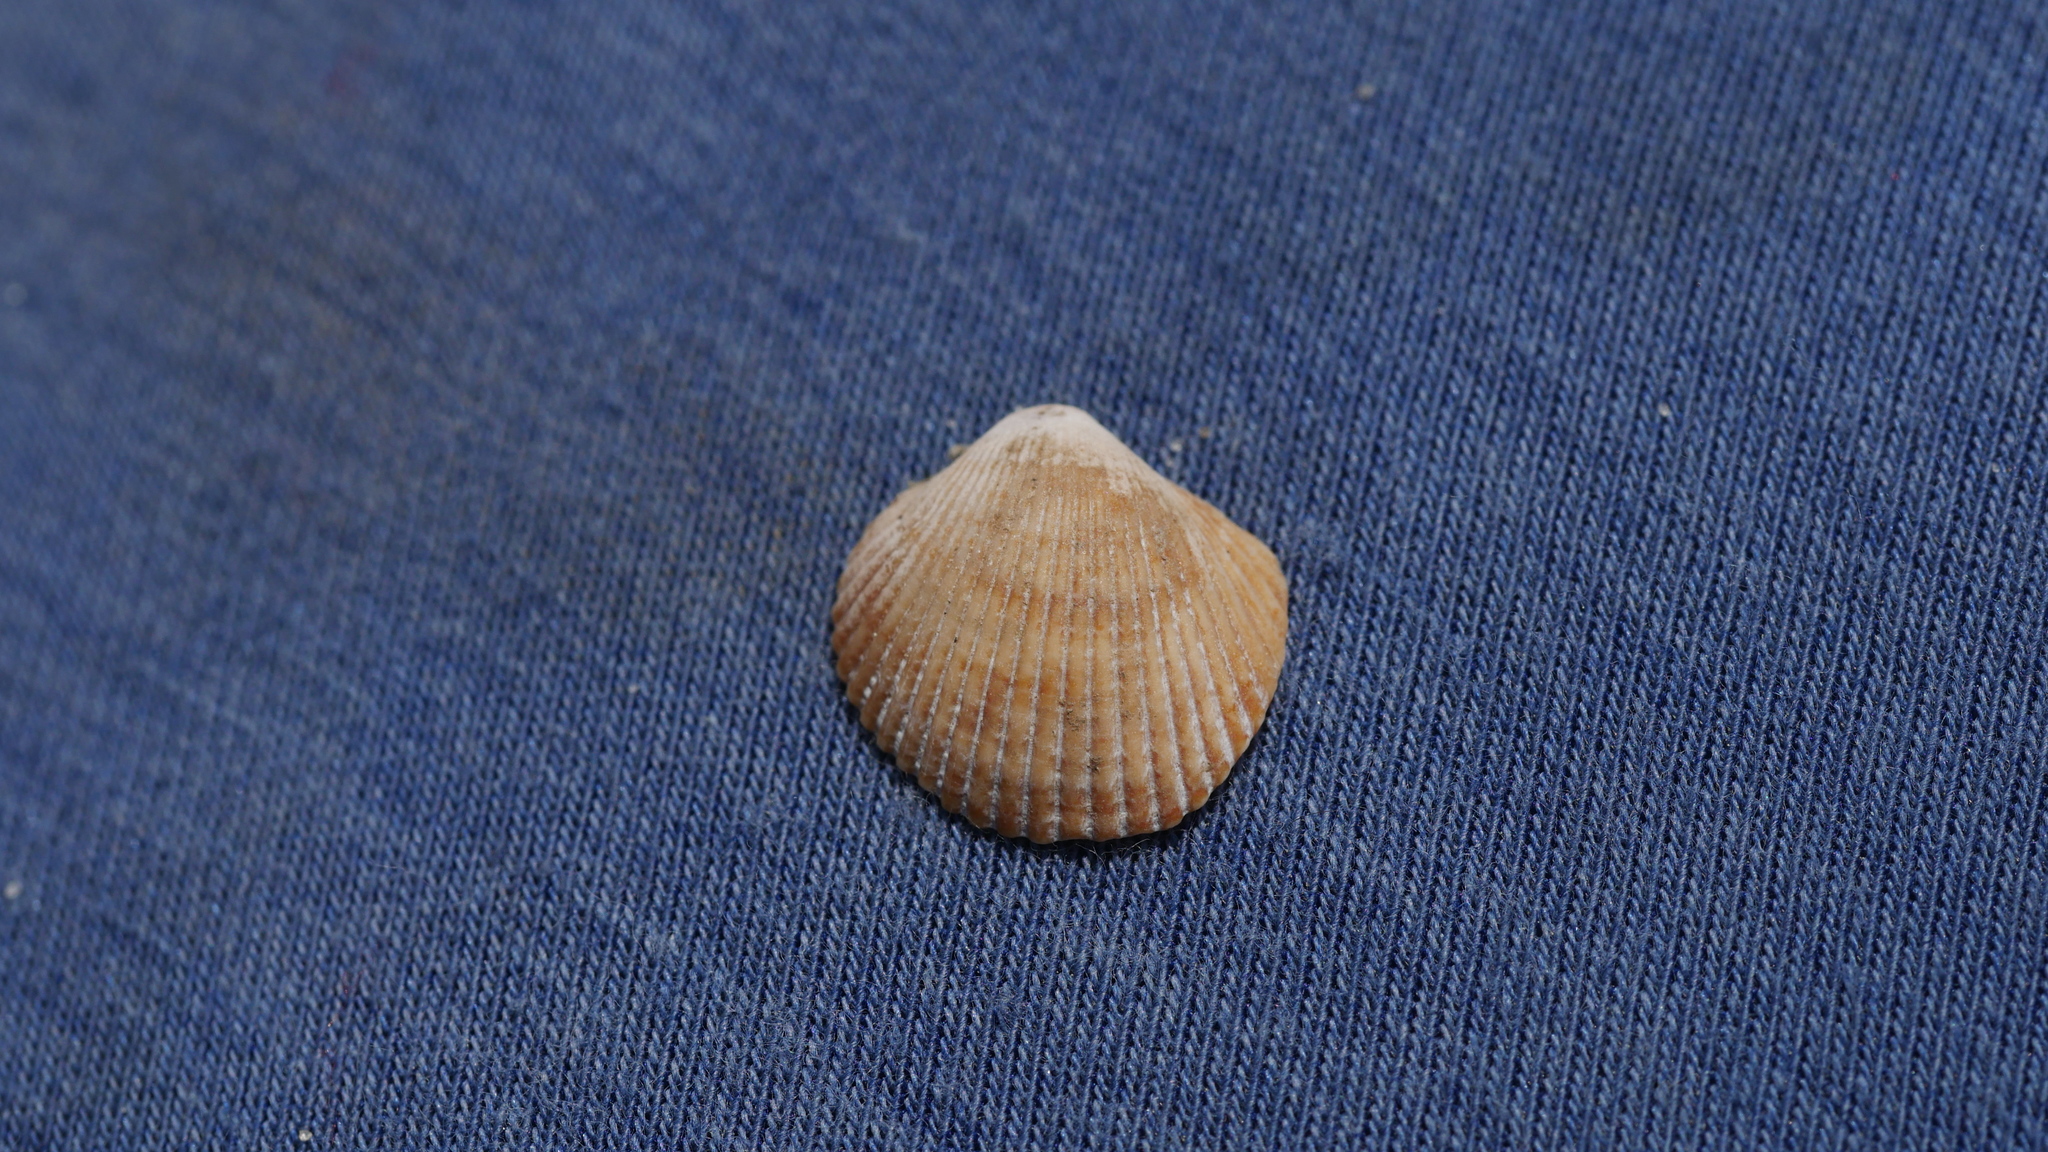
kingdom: Animalia
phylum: Mollusca
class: Bivalvia
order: Arcida
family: Arcidae
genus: Lunarca
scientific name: Lunarca ovalis
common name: Blood ark
